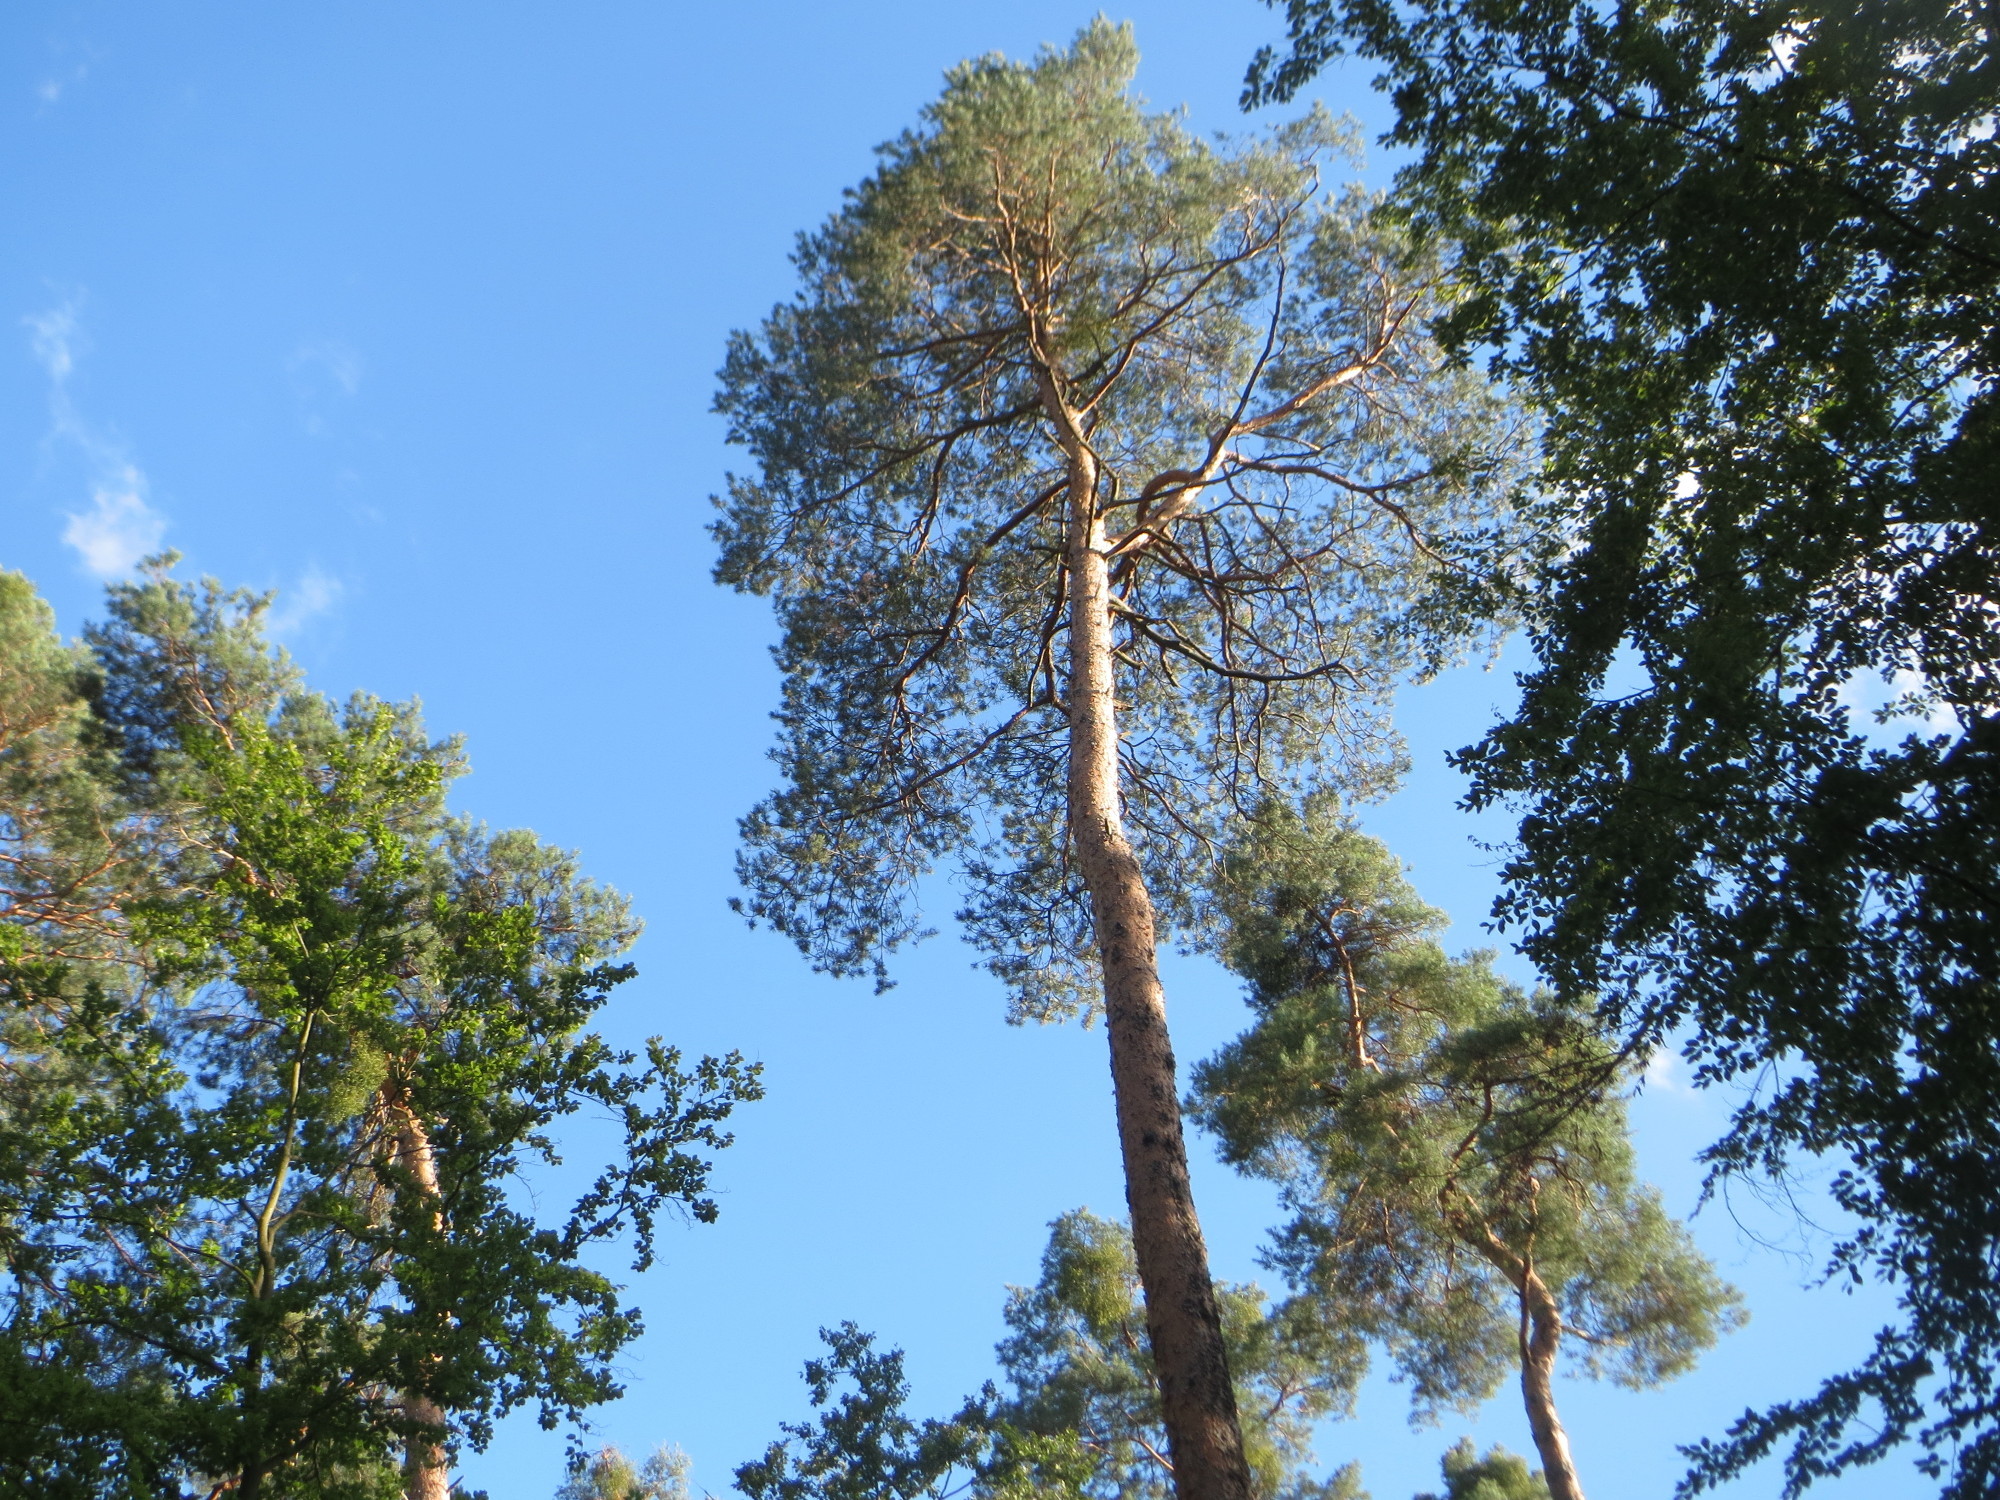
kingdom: Plantae
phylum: Tracheophyta
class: Pinopsida
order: Pinales
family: Pinaceae
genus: Pinus
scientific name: Pinus sylvestris
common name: Scots pine
